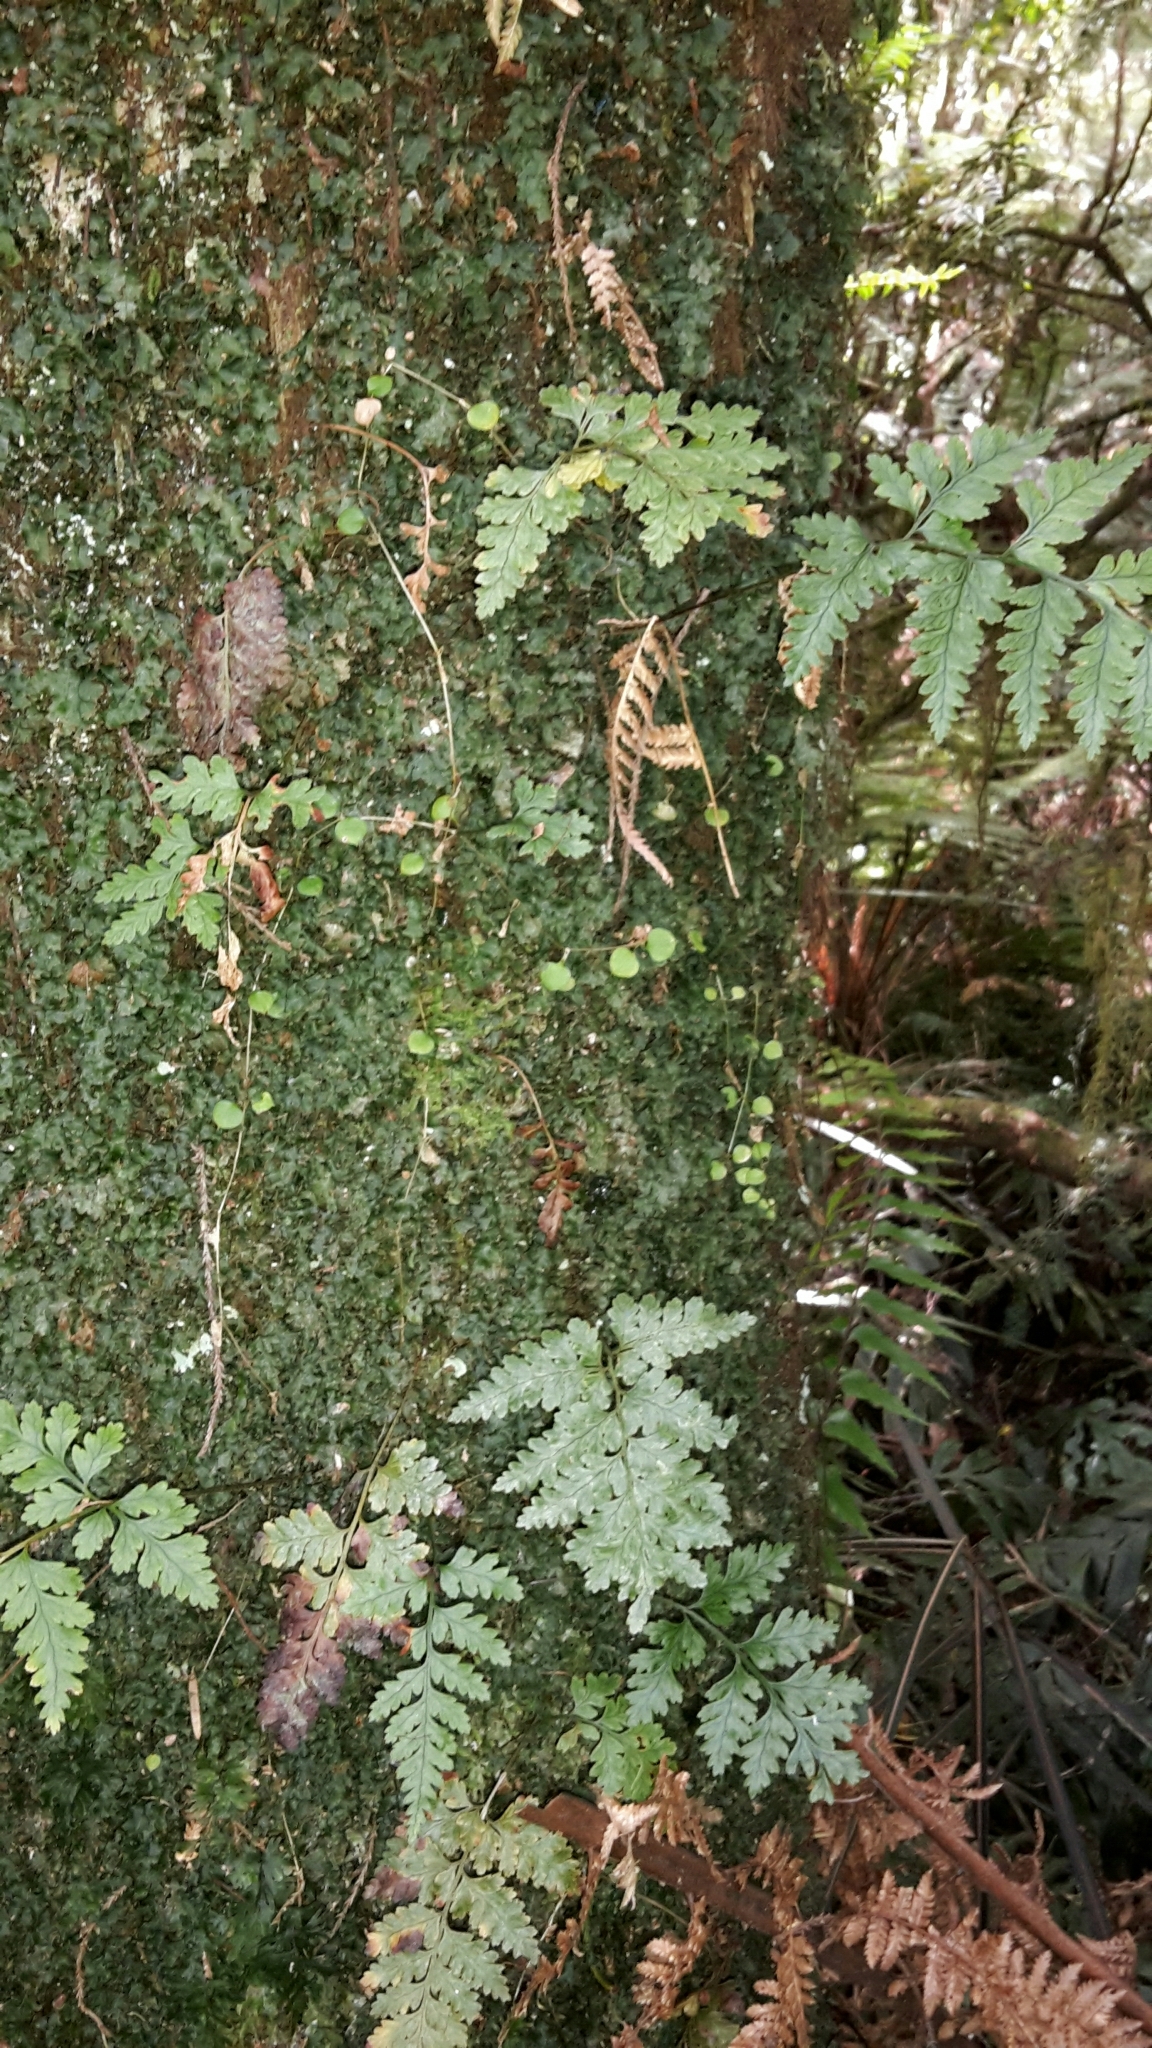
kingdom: Plantae
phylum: Tracheophyta
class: Polypodiopsida
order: Polypodiales
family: Dryopteridaceae
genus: Rumohra
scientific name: Rumohra adiantiformis
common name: Leather fern
